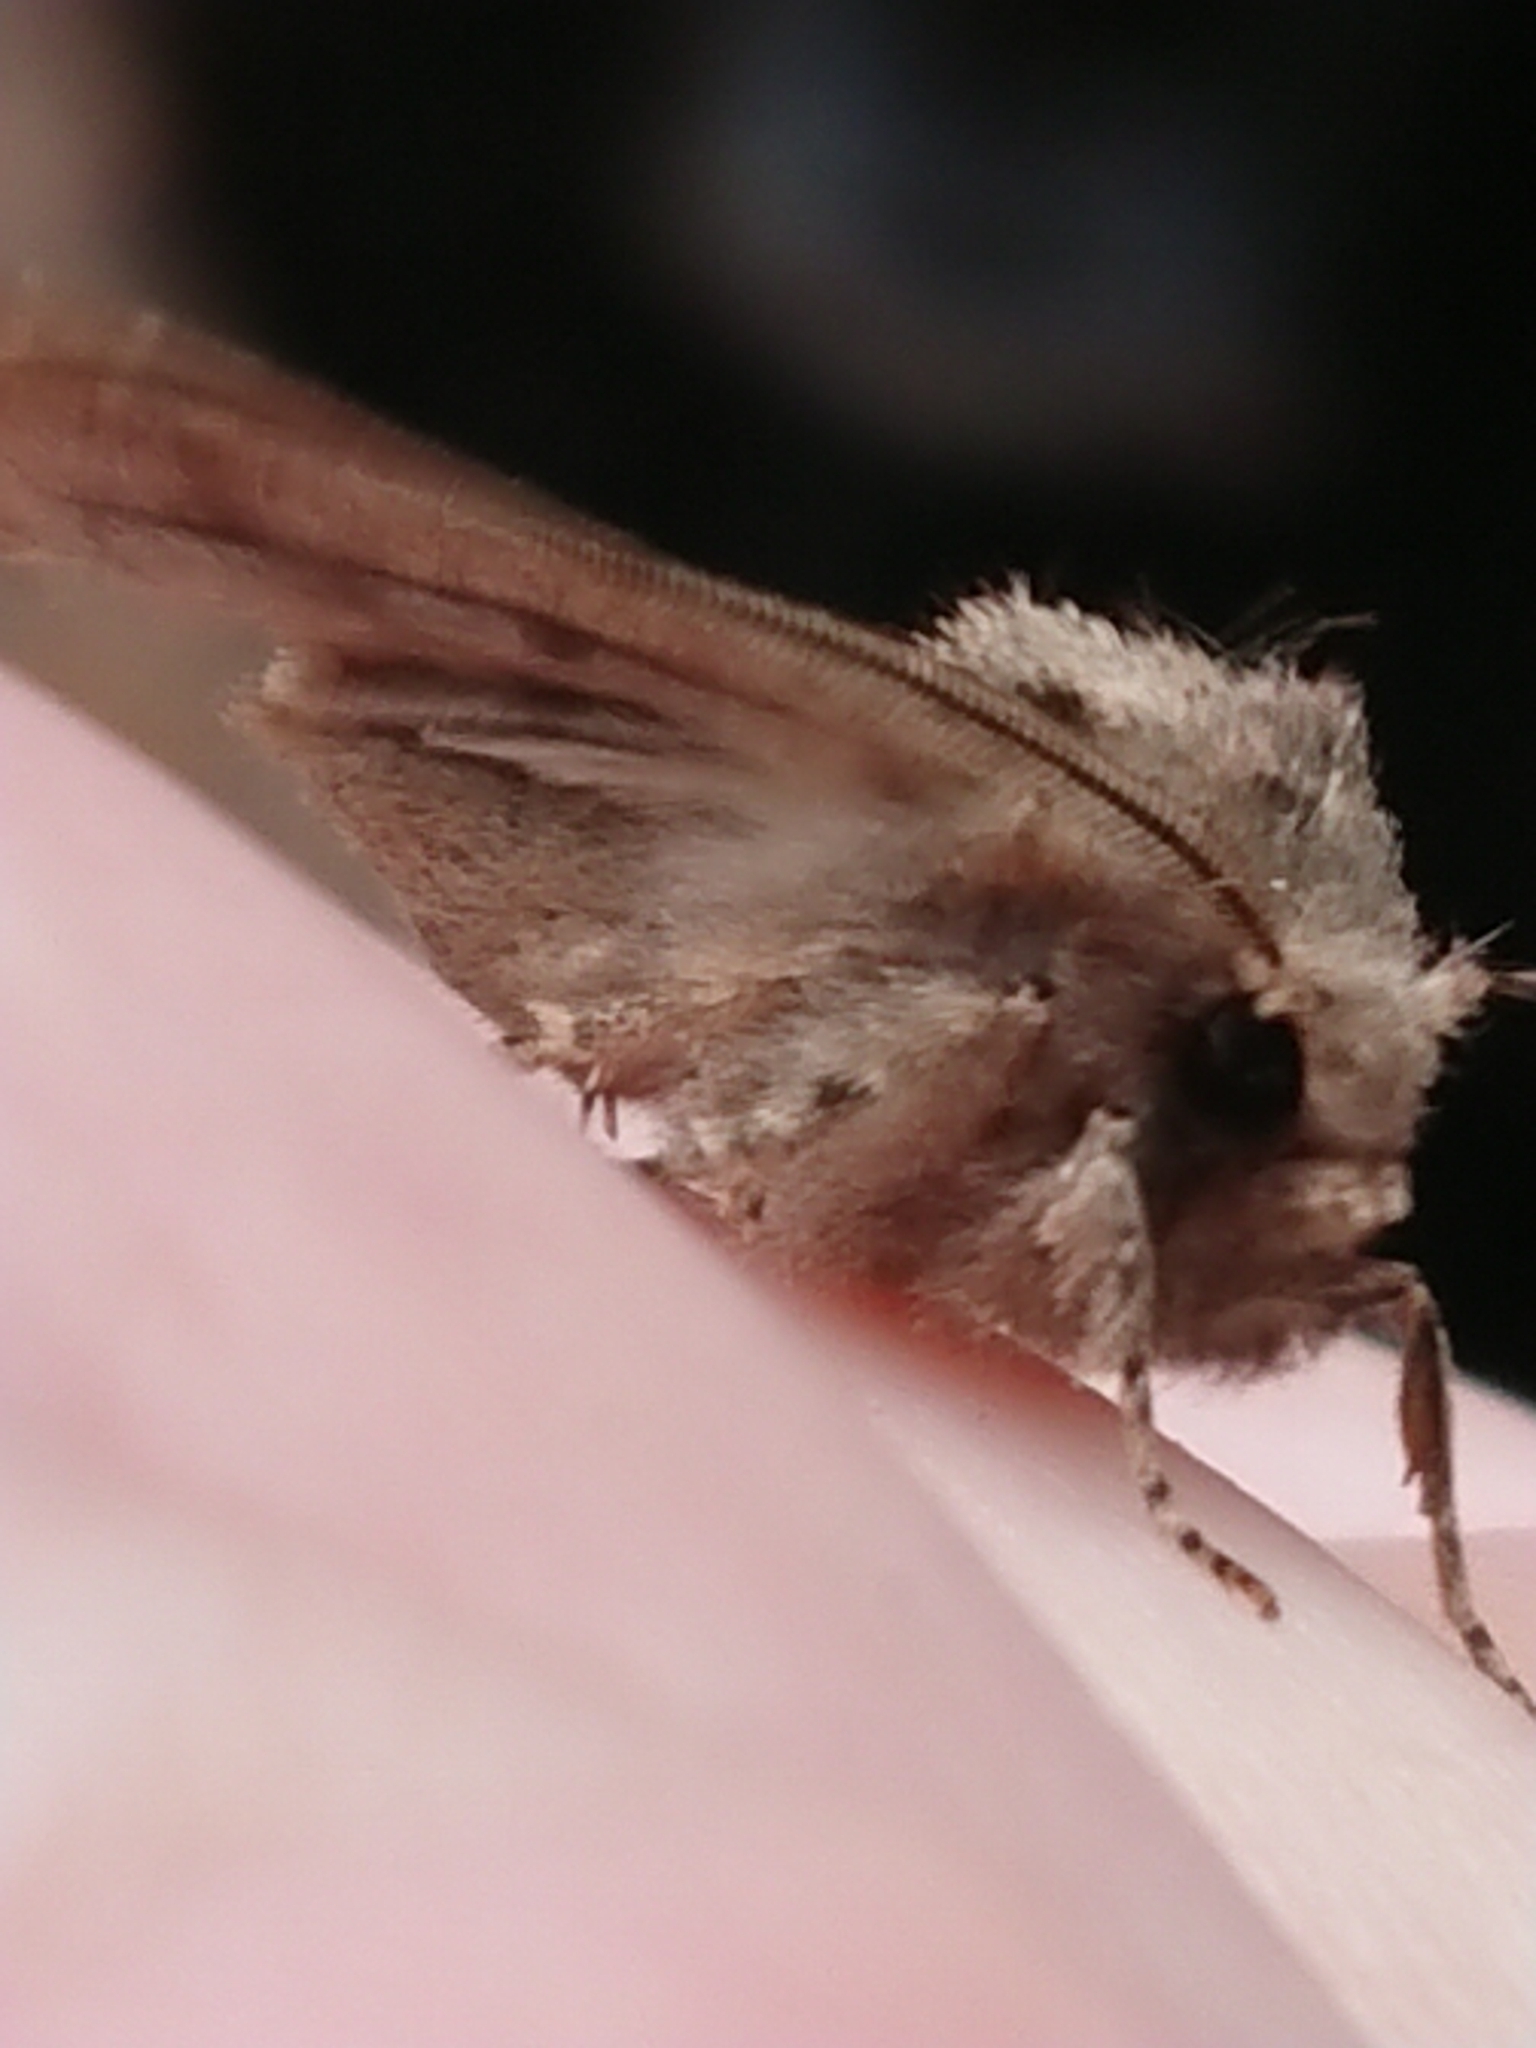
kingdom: Animalia
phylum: Arthropoda
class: Insecta
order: Lepidoptera
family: Noctuidae
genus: Ichneutica
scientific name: Ichneutica
